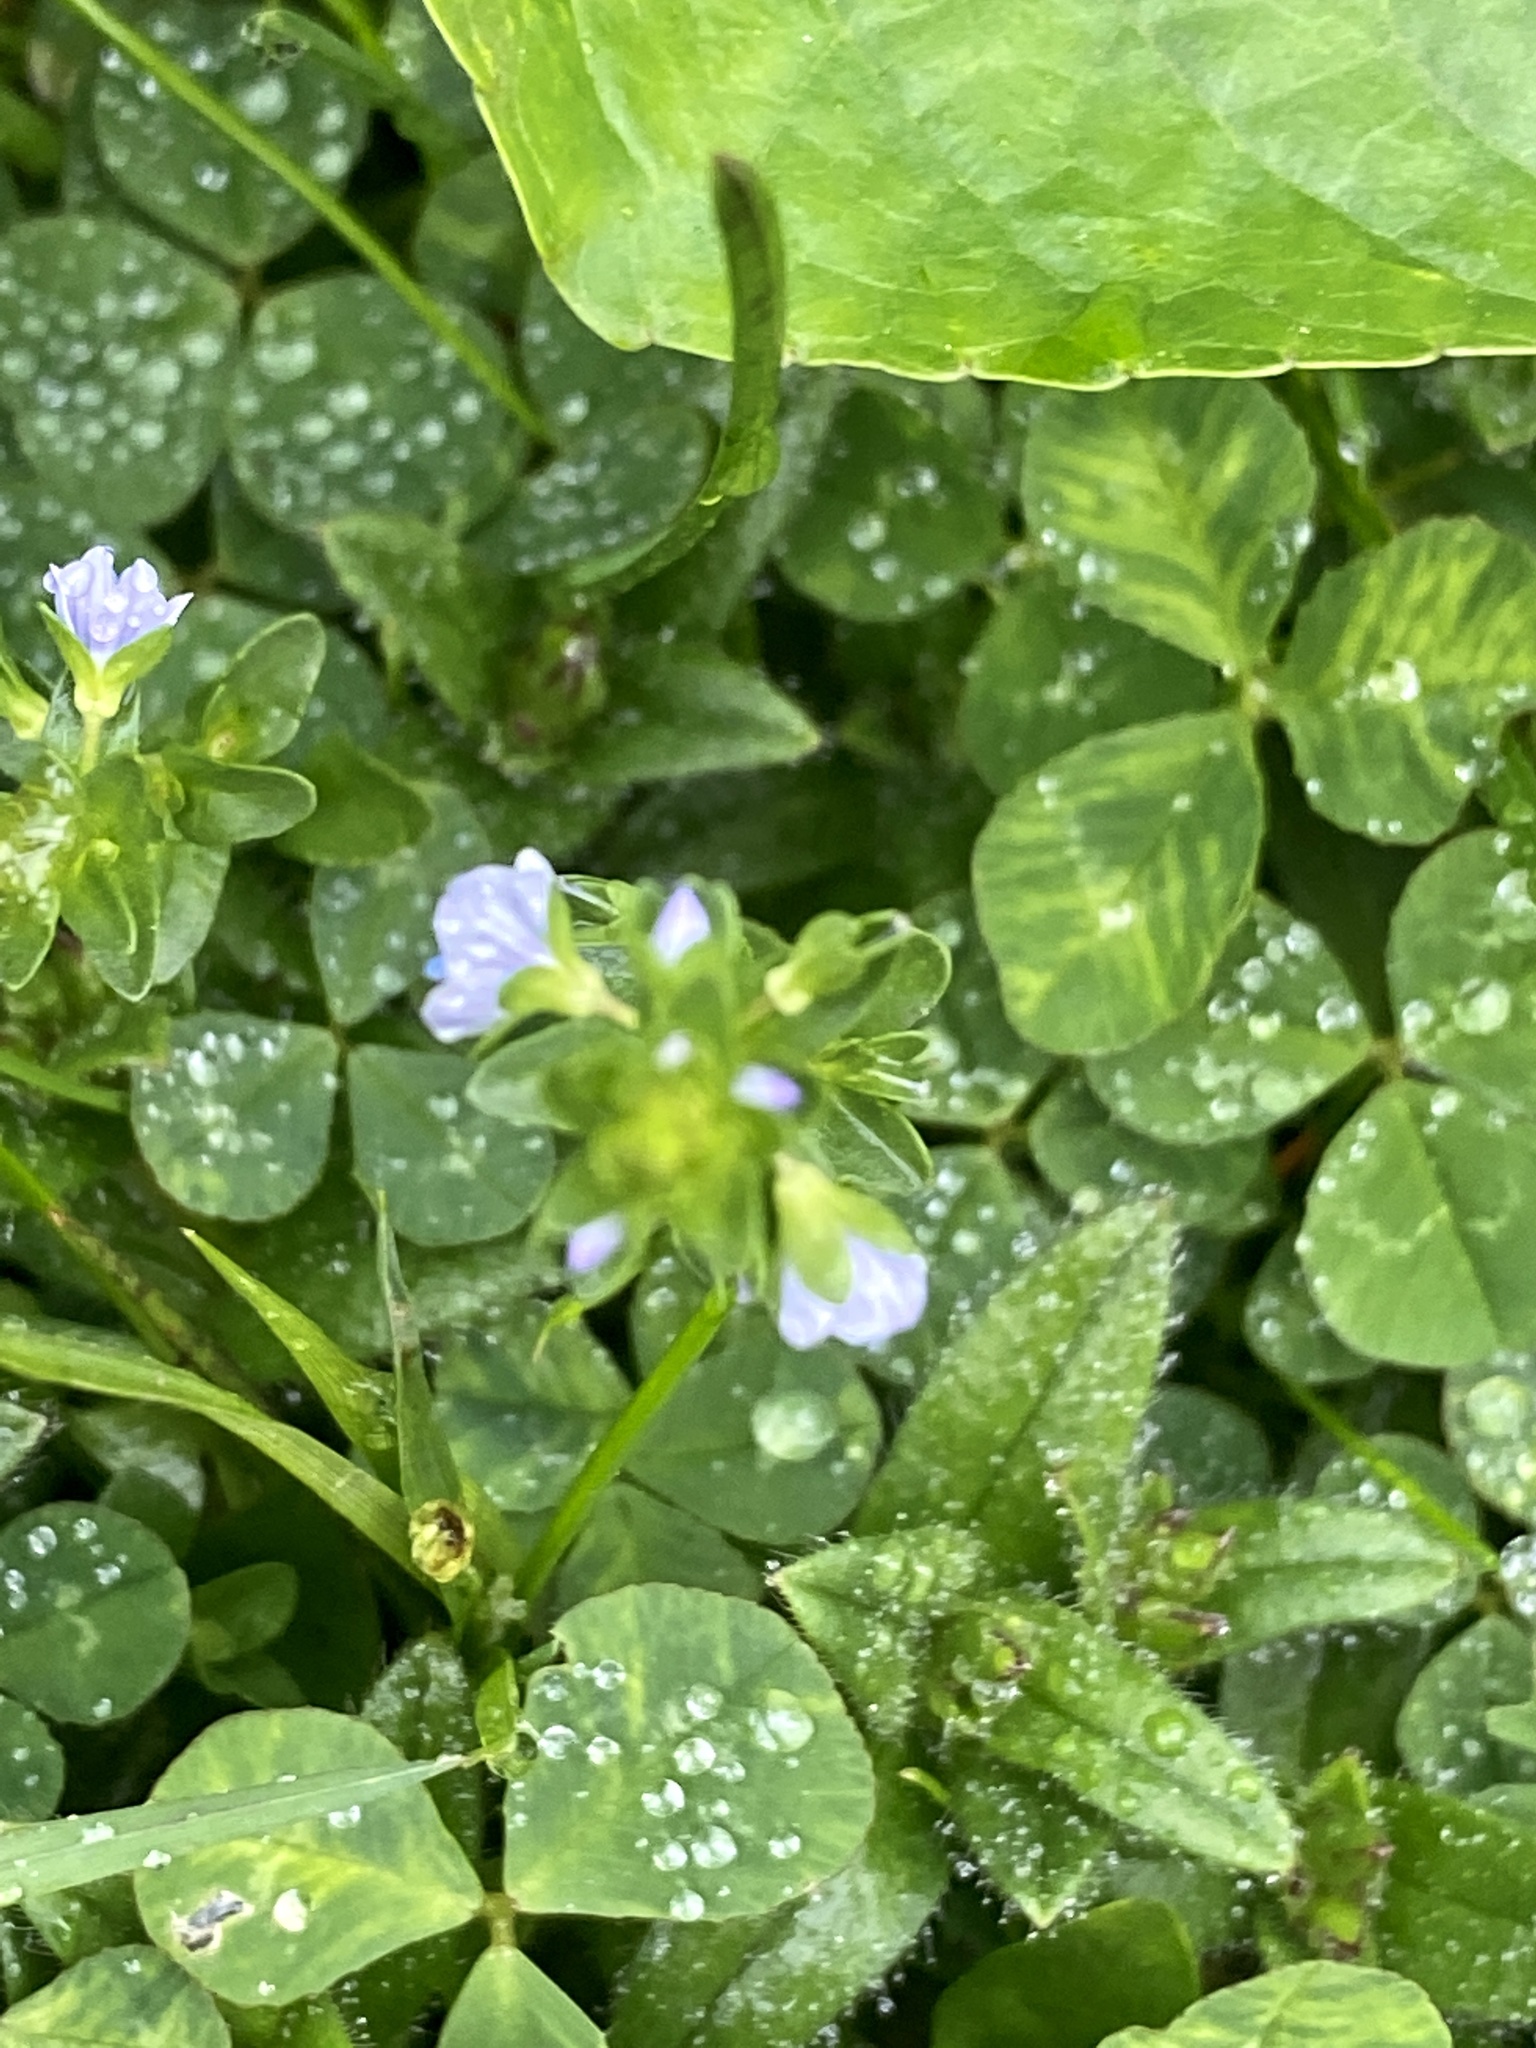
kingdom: Plantae
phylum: Tracheophyta
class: Magnoliopsida
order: Lamiales
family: Plantaginaceae
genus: Veronica
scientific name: Veronica serpyllifolia
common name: Thyme-leaved speedwell
